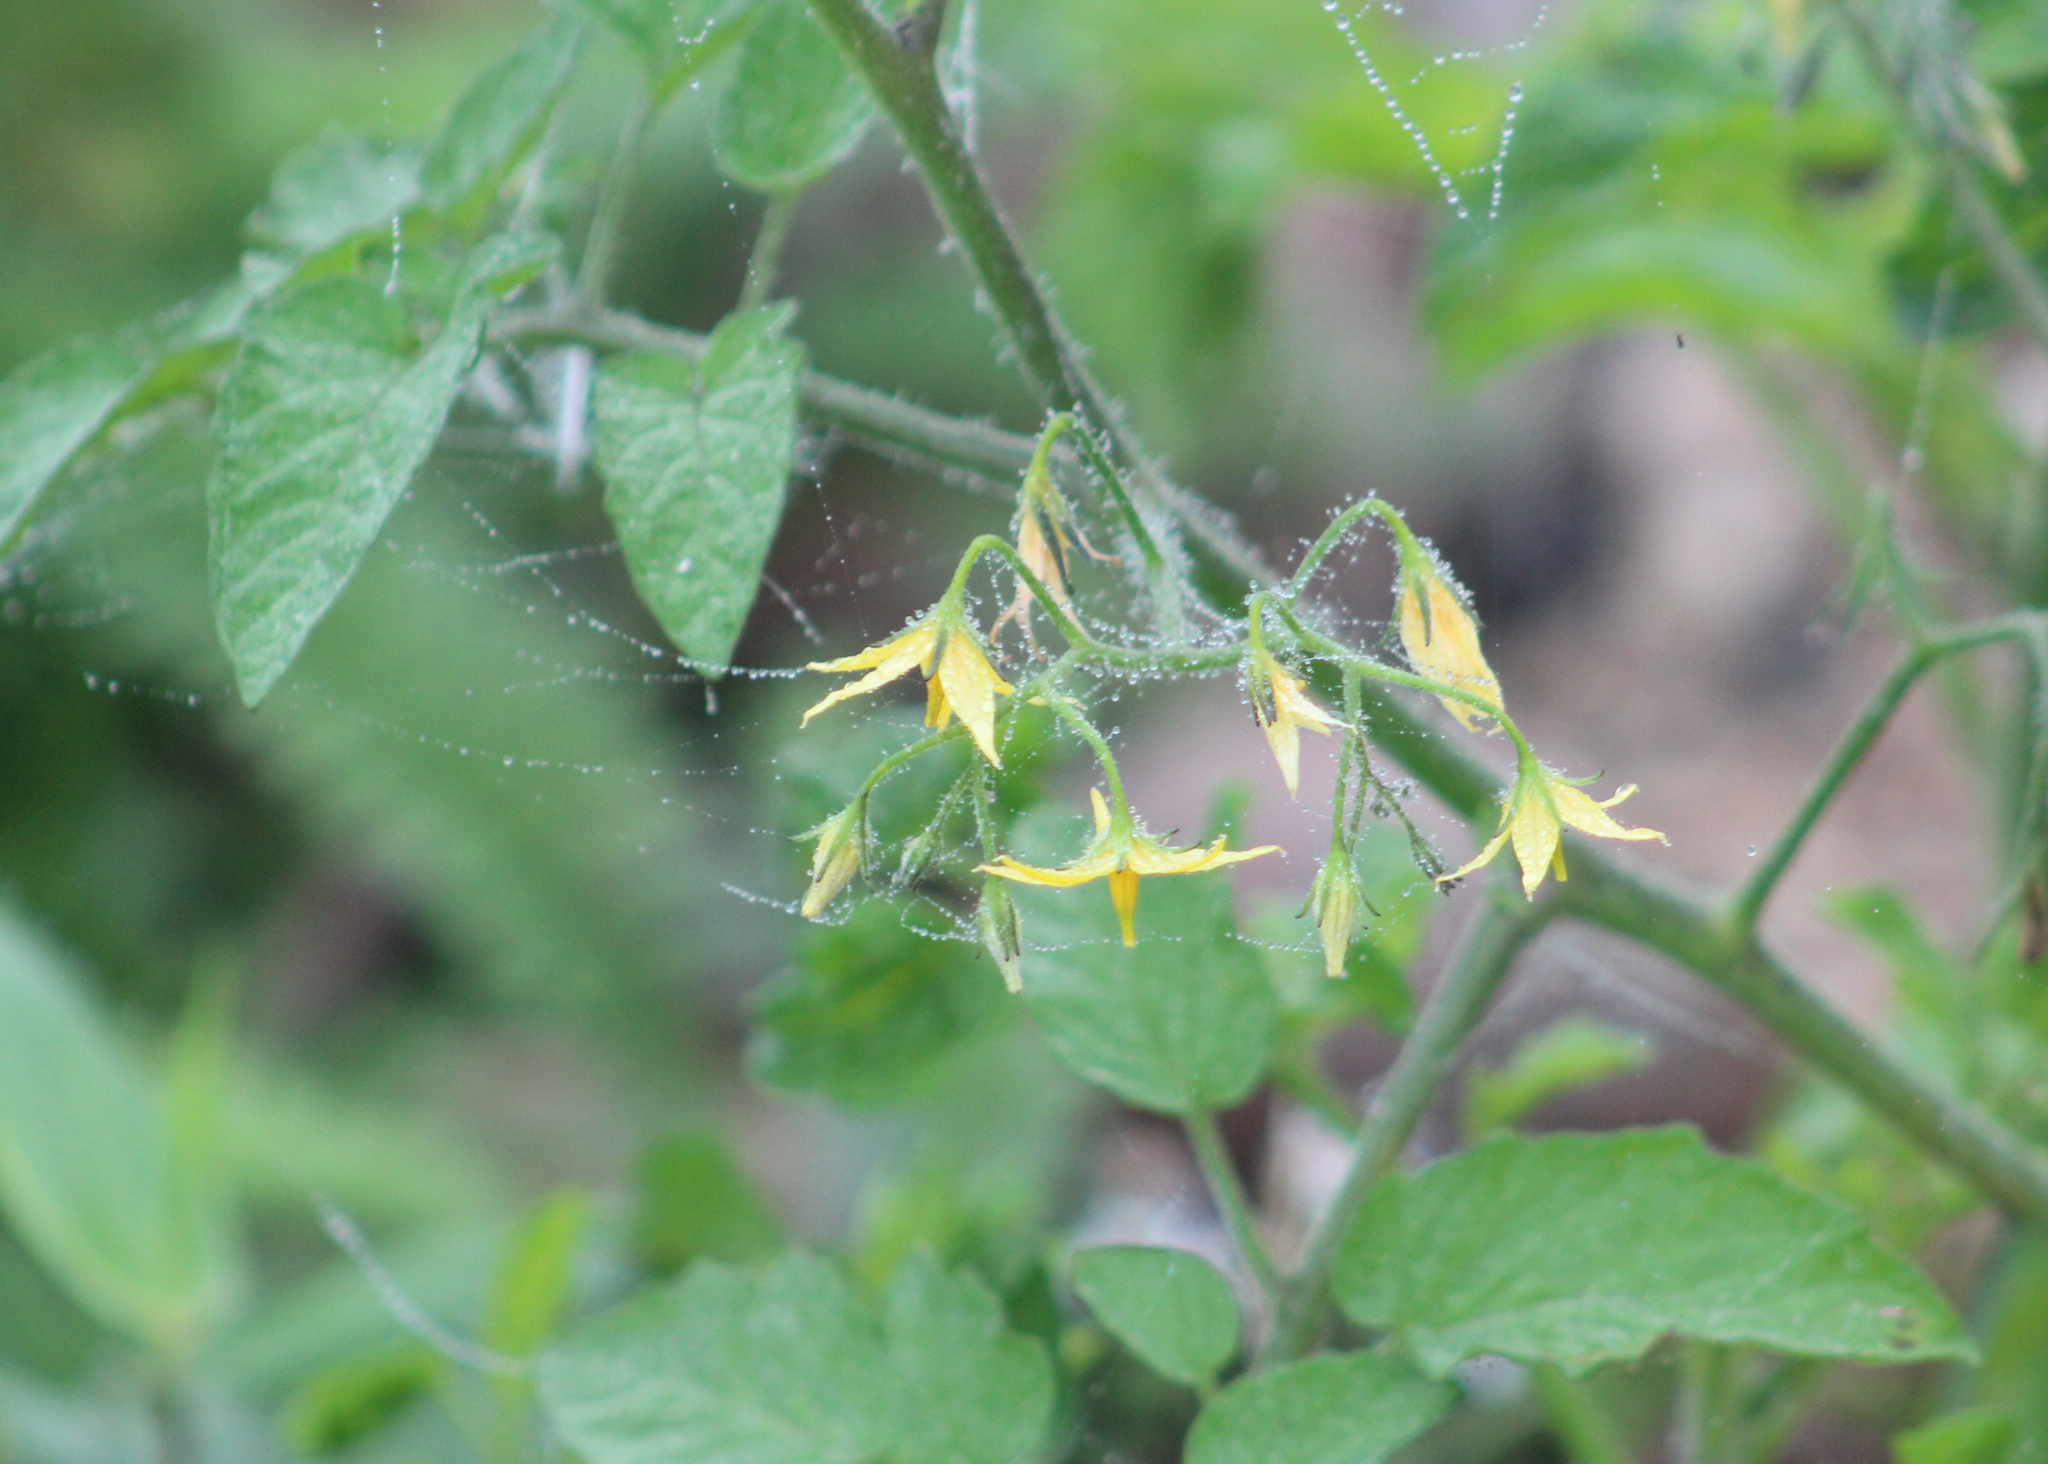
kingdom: Plantae
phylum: Tracheophyta
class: Magnoliopsida
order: Solanales
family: Solanaceae
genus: Solanum
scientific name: Solanum lycopersicum
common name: Garden tomato
